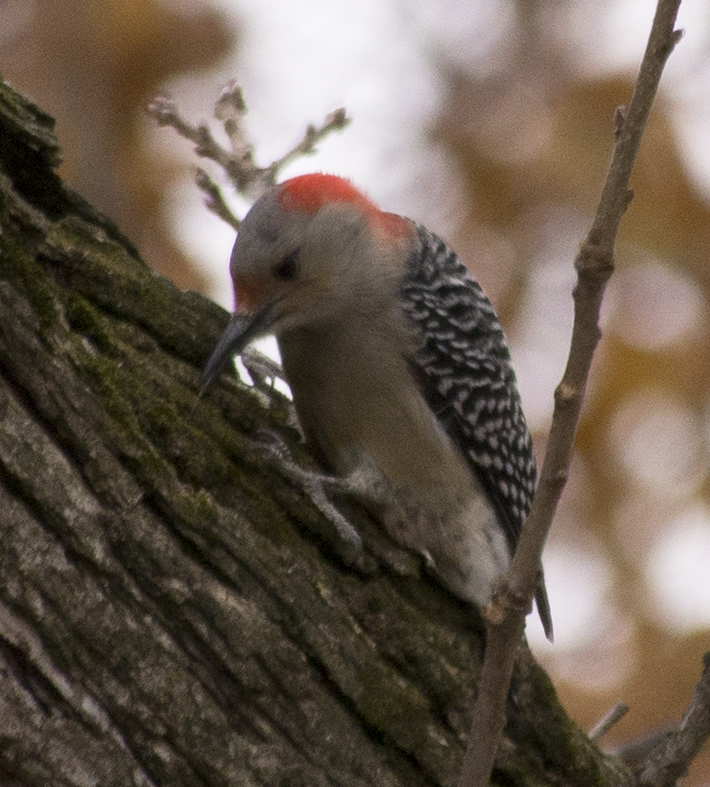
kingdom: Animalia
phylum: Chordata
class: Aves
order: Piciformes
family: Picidae
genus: Melanerpes
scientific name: Melanerpes carolinus
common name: Red-bellied woodpecker
